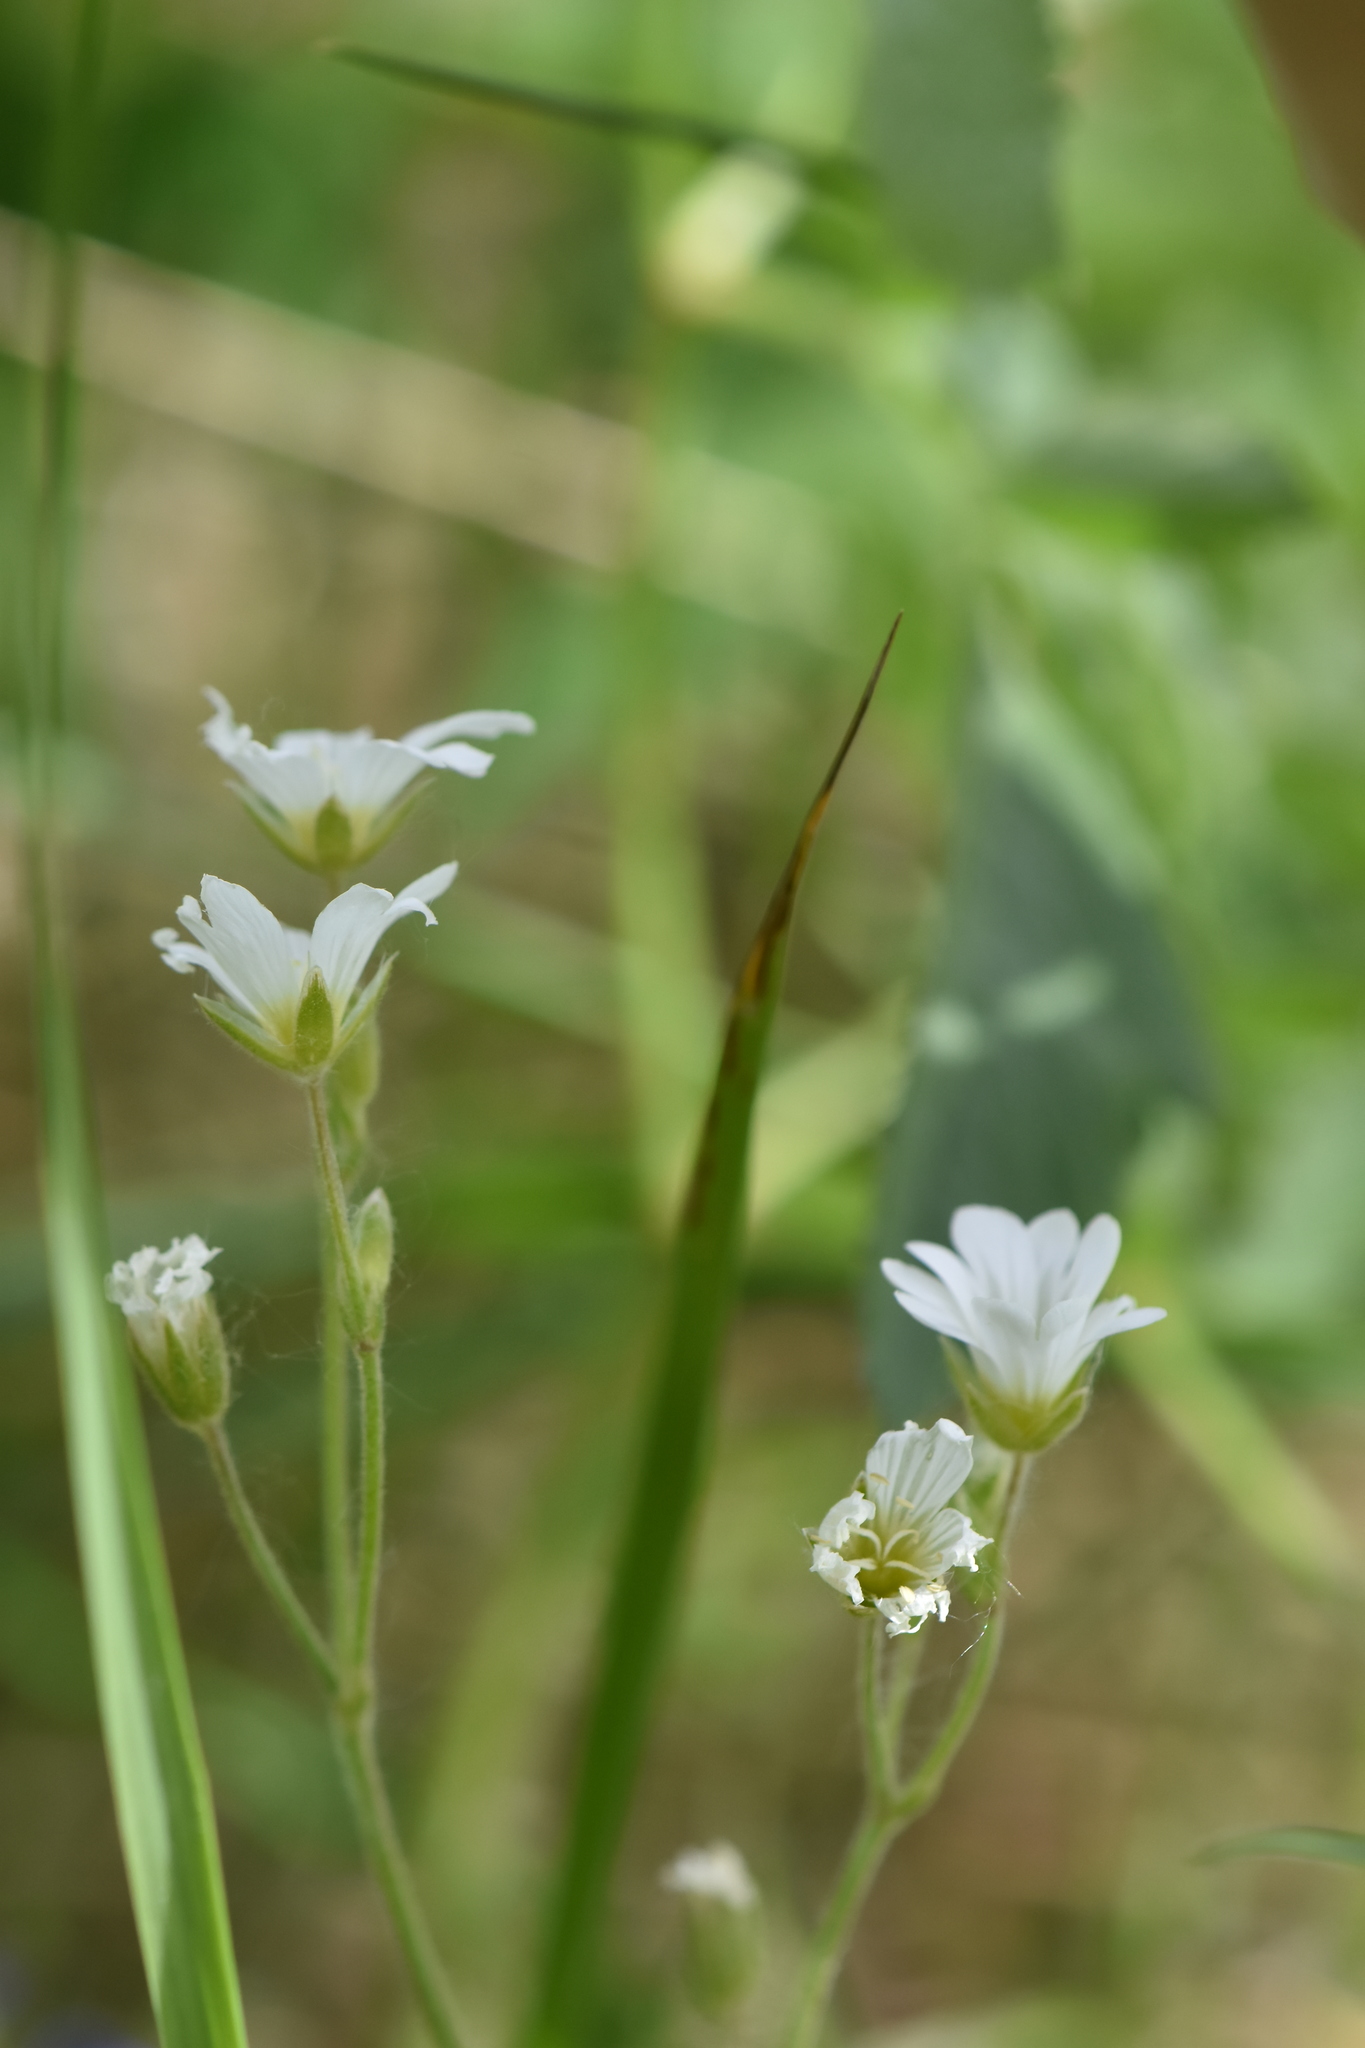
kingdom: Plantae
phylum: Tracheophyta
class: Magnoliopsida
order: Caryophyllales
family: Caryophyllaceae
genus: Cerastium
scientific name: Cerastium arvense
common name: Field mouse-ear
